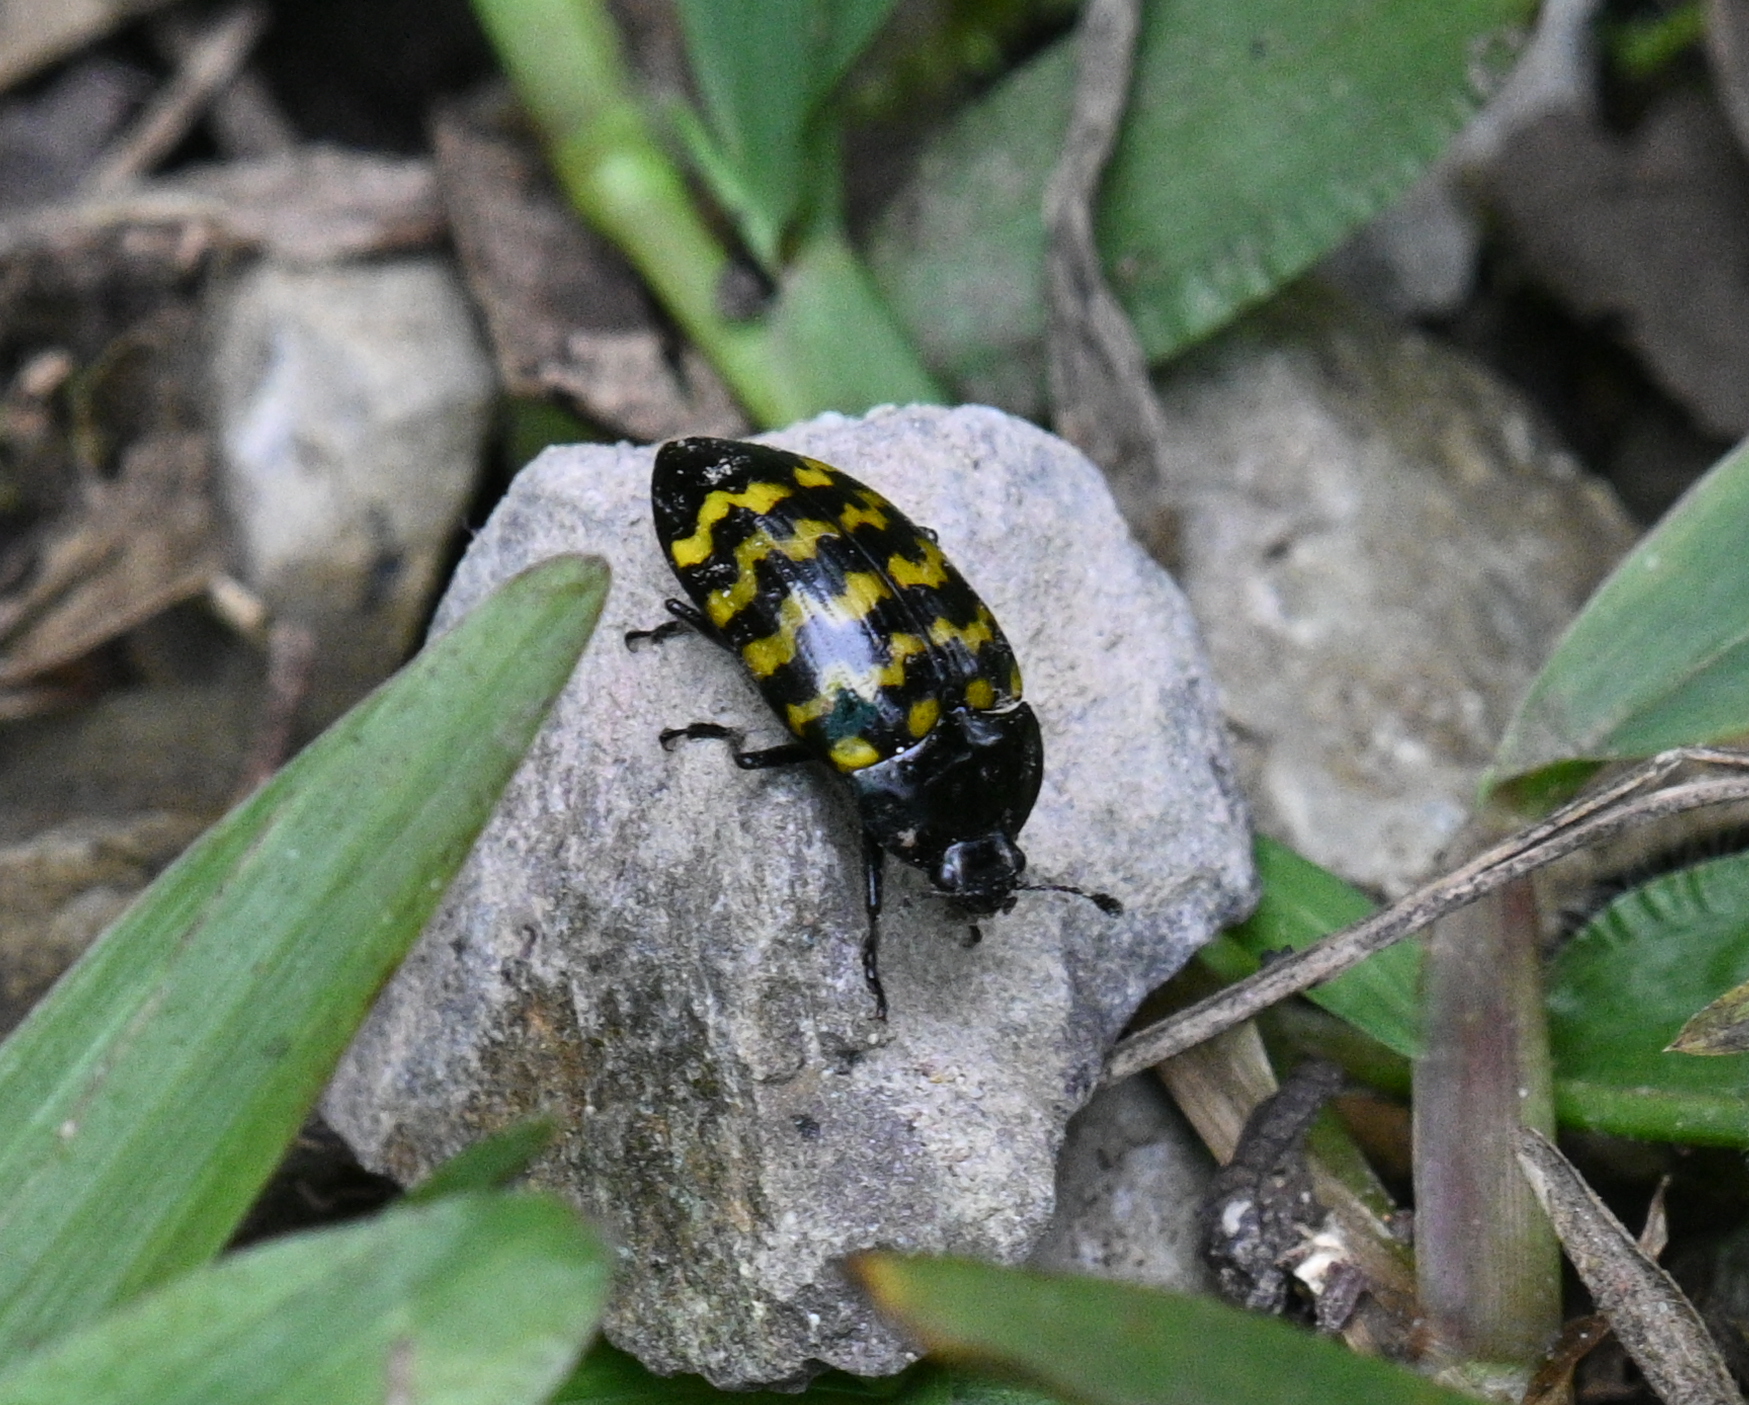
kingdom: Animalia
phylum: Arthropoda
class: Insecta
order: Coleoptera
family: Erotylidae
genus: Iphiclus
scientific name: Iphiclus
